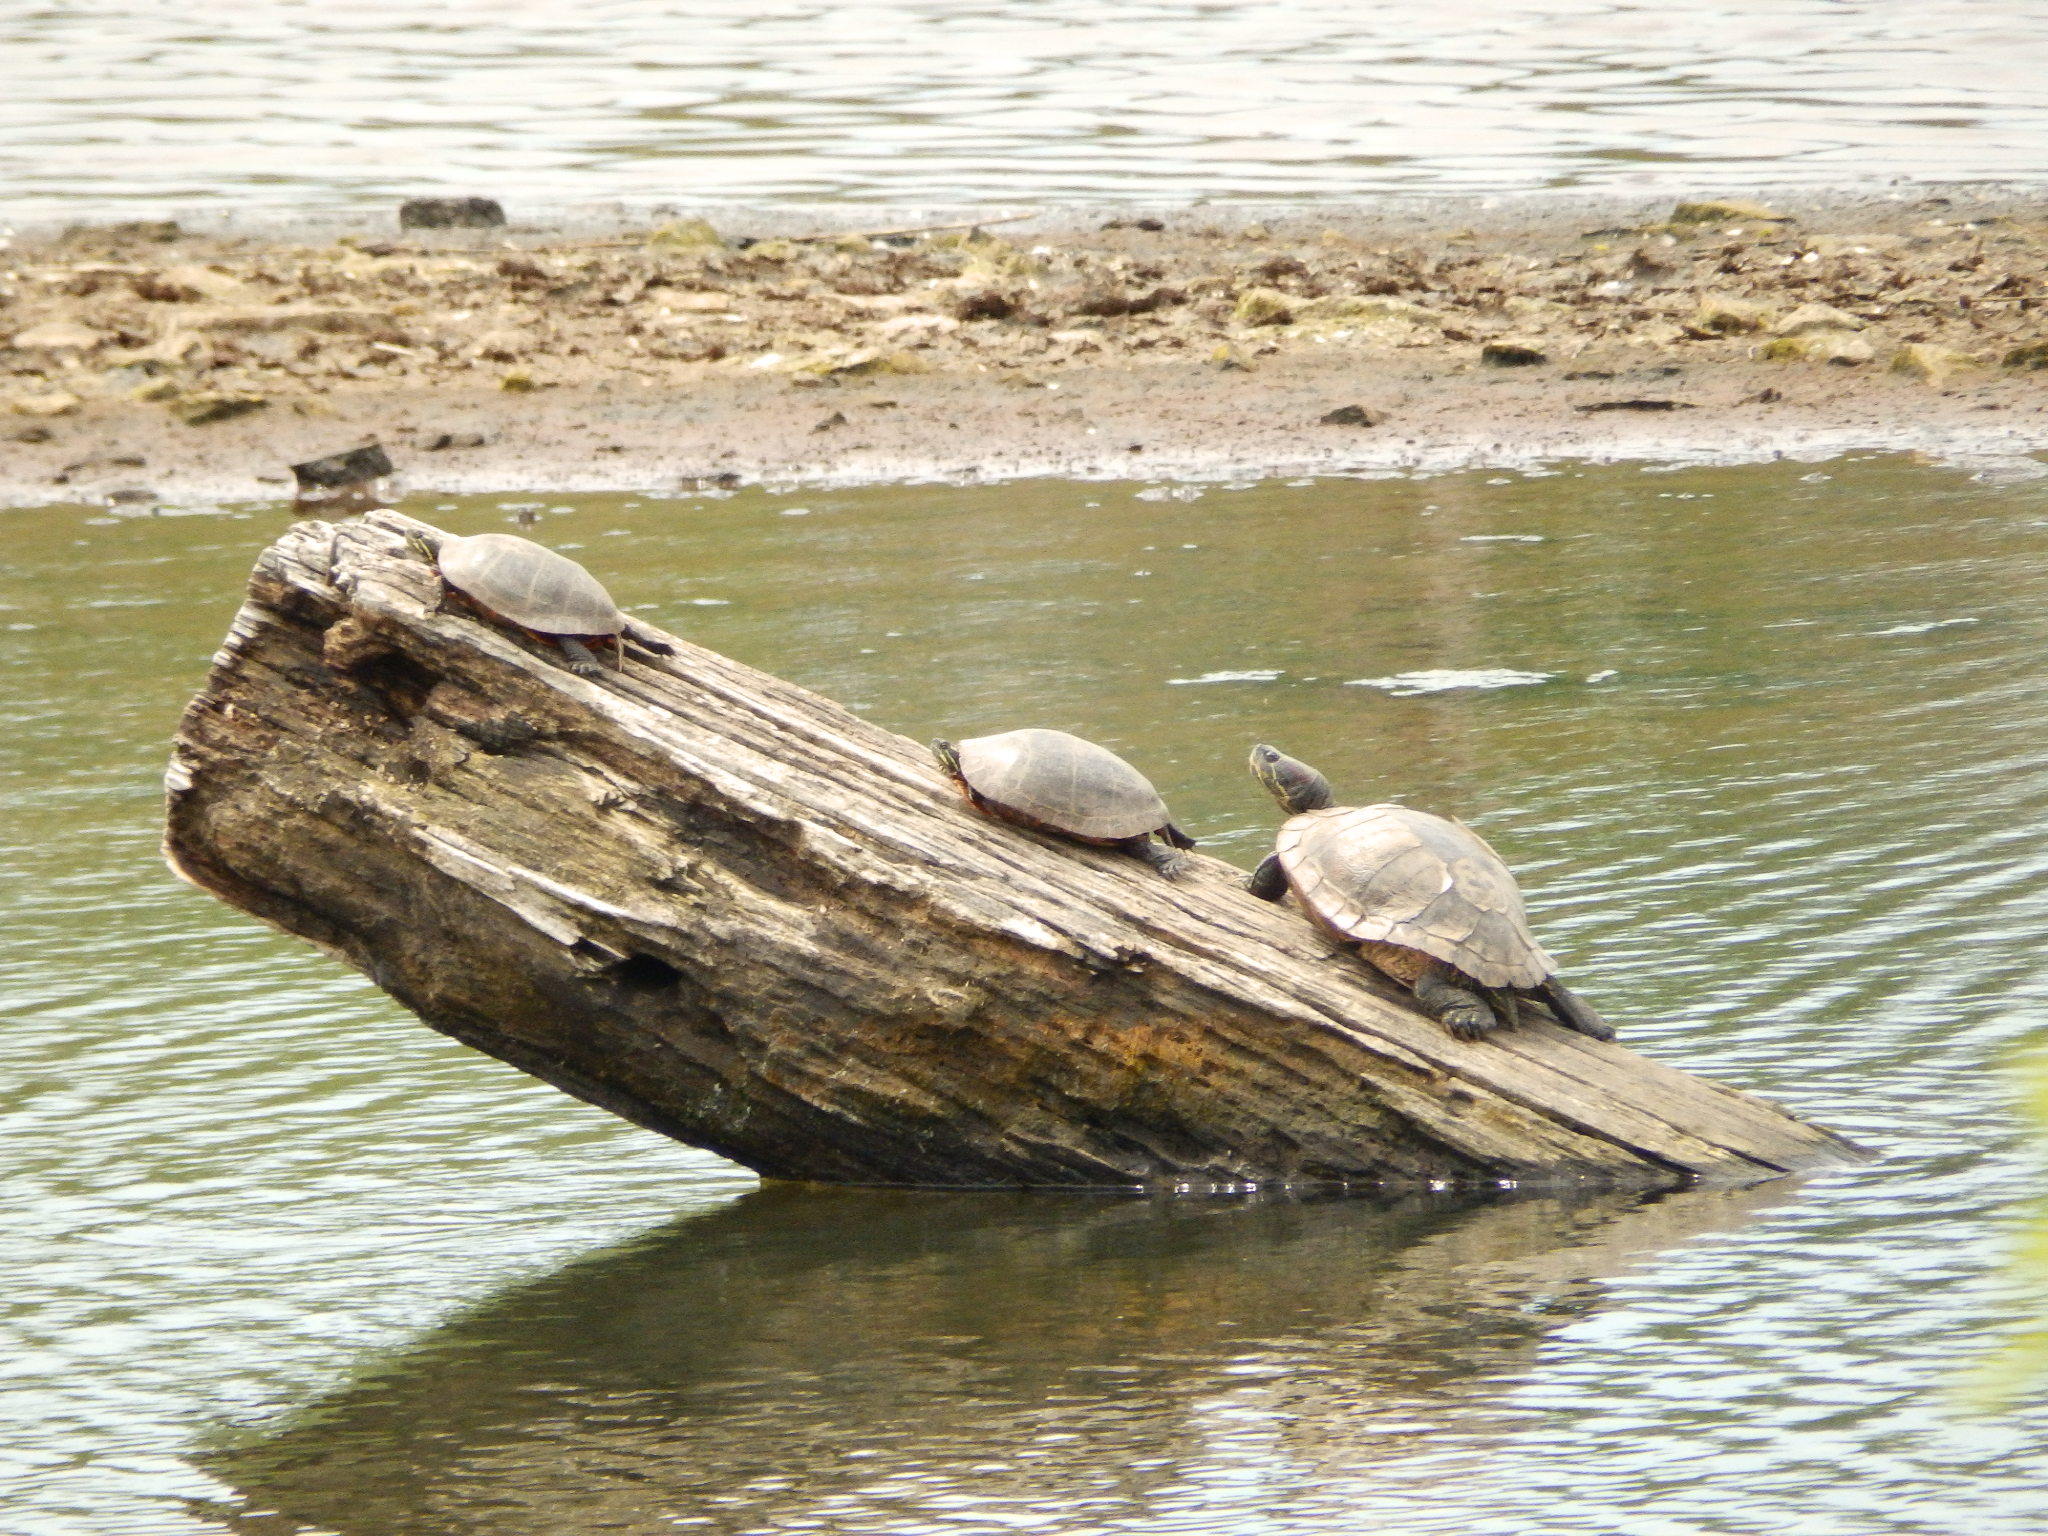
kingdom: Animalia
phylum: Chordata
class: Testudines
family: Emydidae
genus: Trachemys
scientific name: Trachemys scripta
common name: Slider
